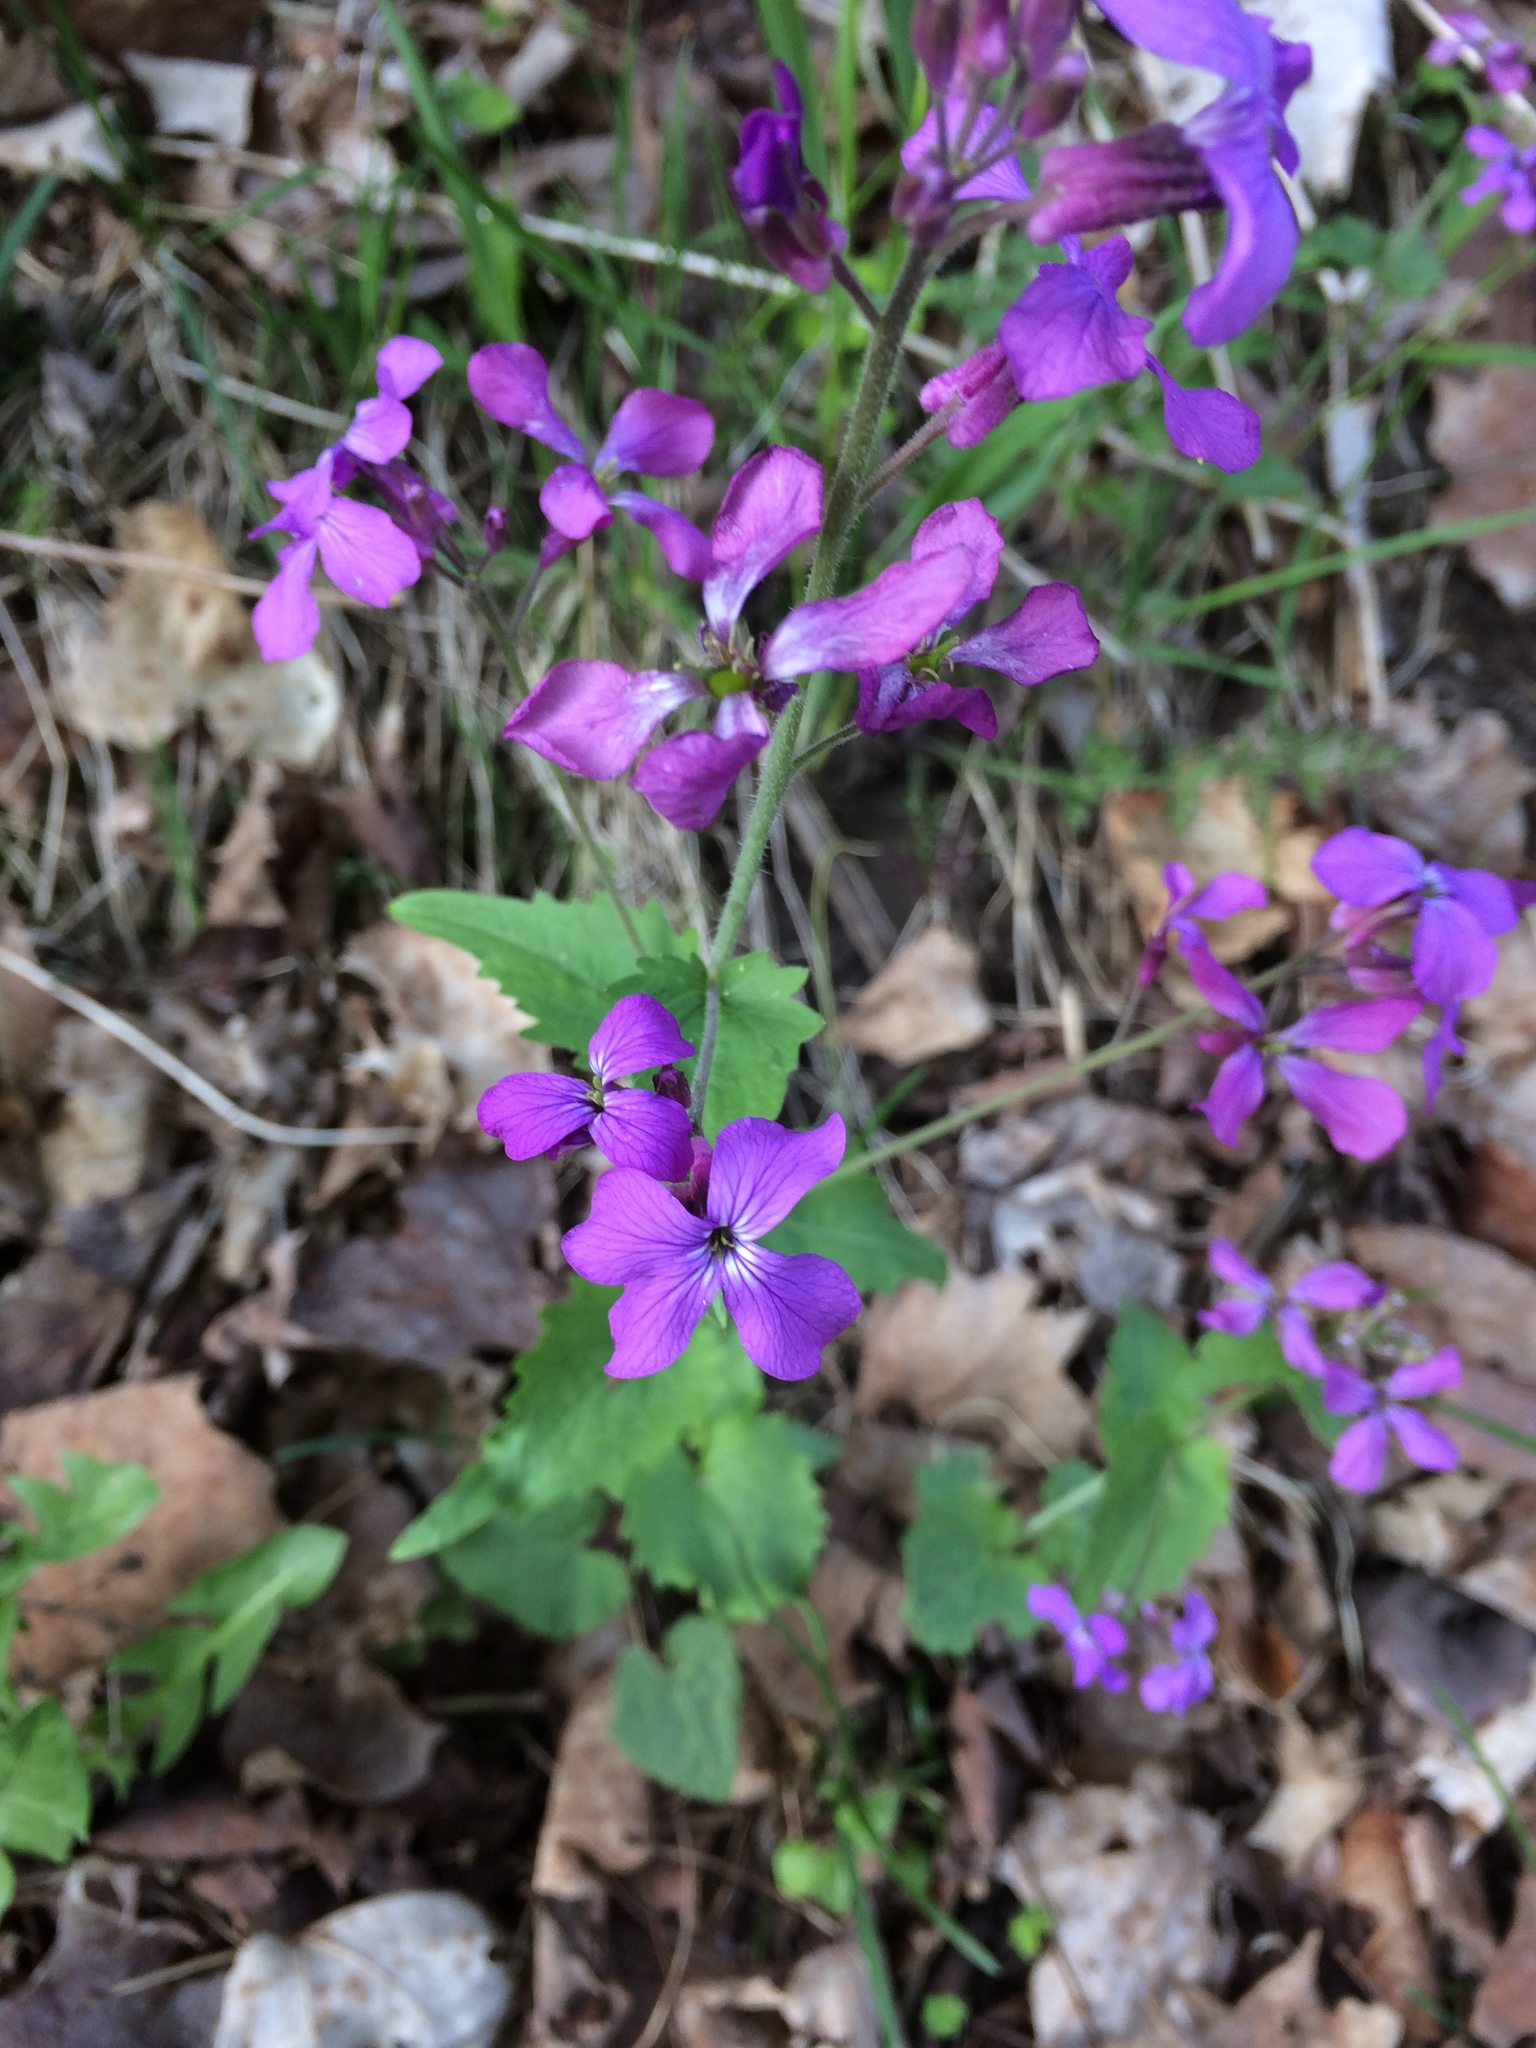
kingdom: Plantae
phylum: Tracheophyta
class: Magnoliopsida
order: Brassicales
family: Brassicaceae
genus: Lunaria
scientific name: Lunaria annua
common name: Honesty
